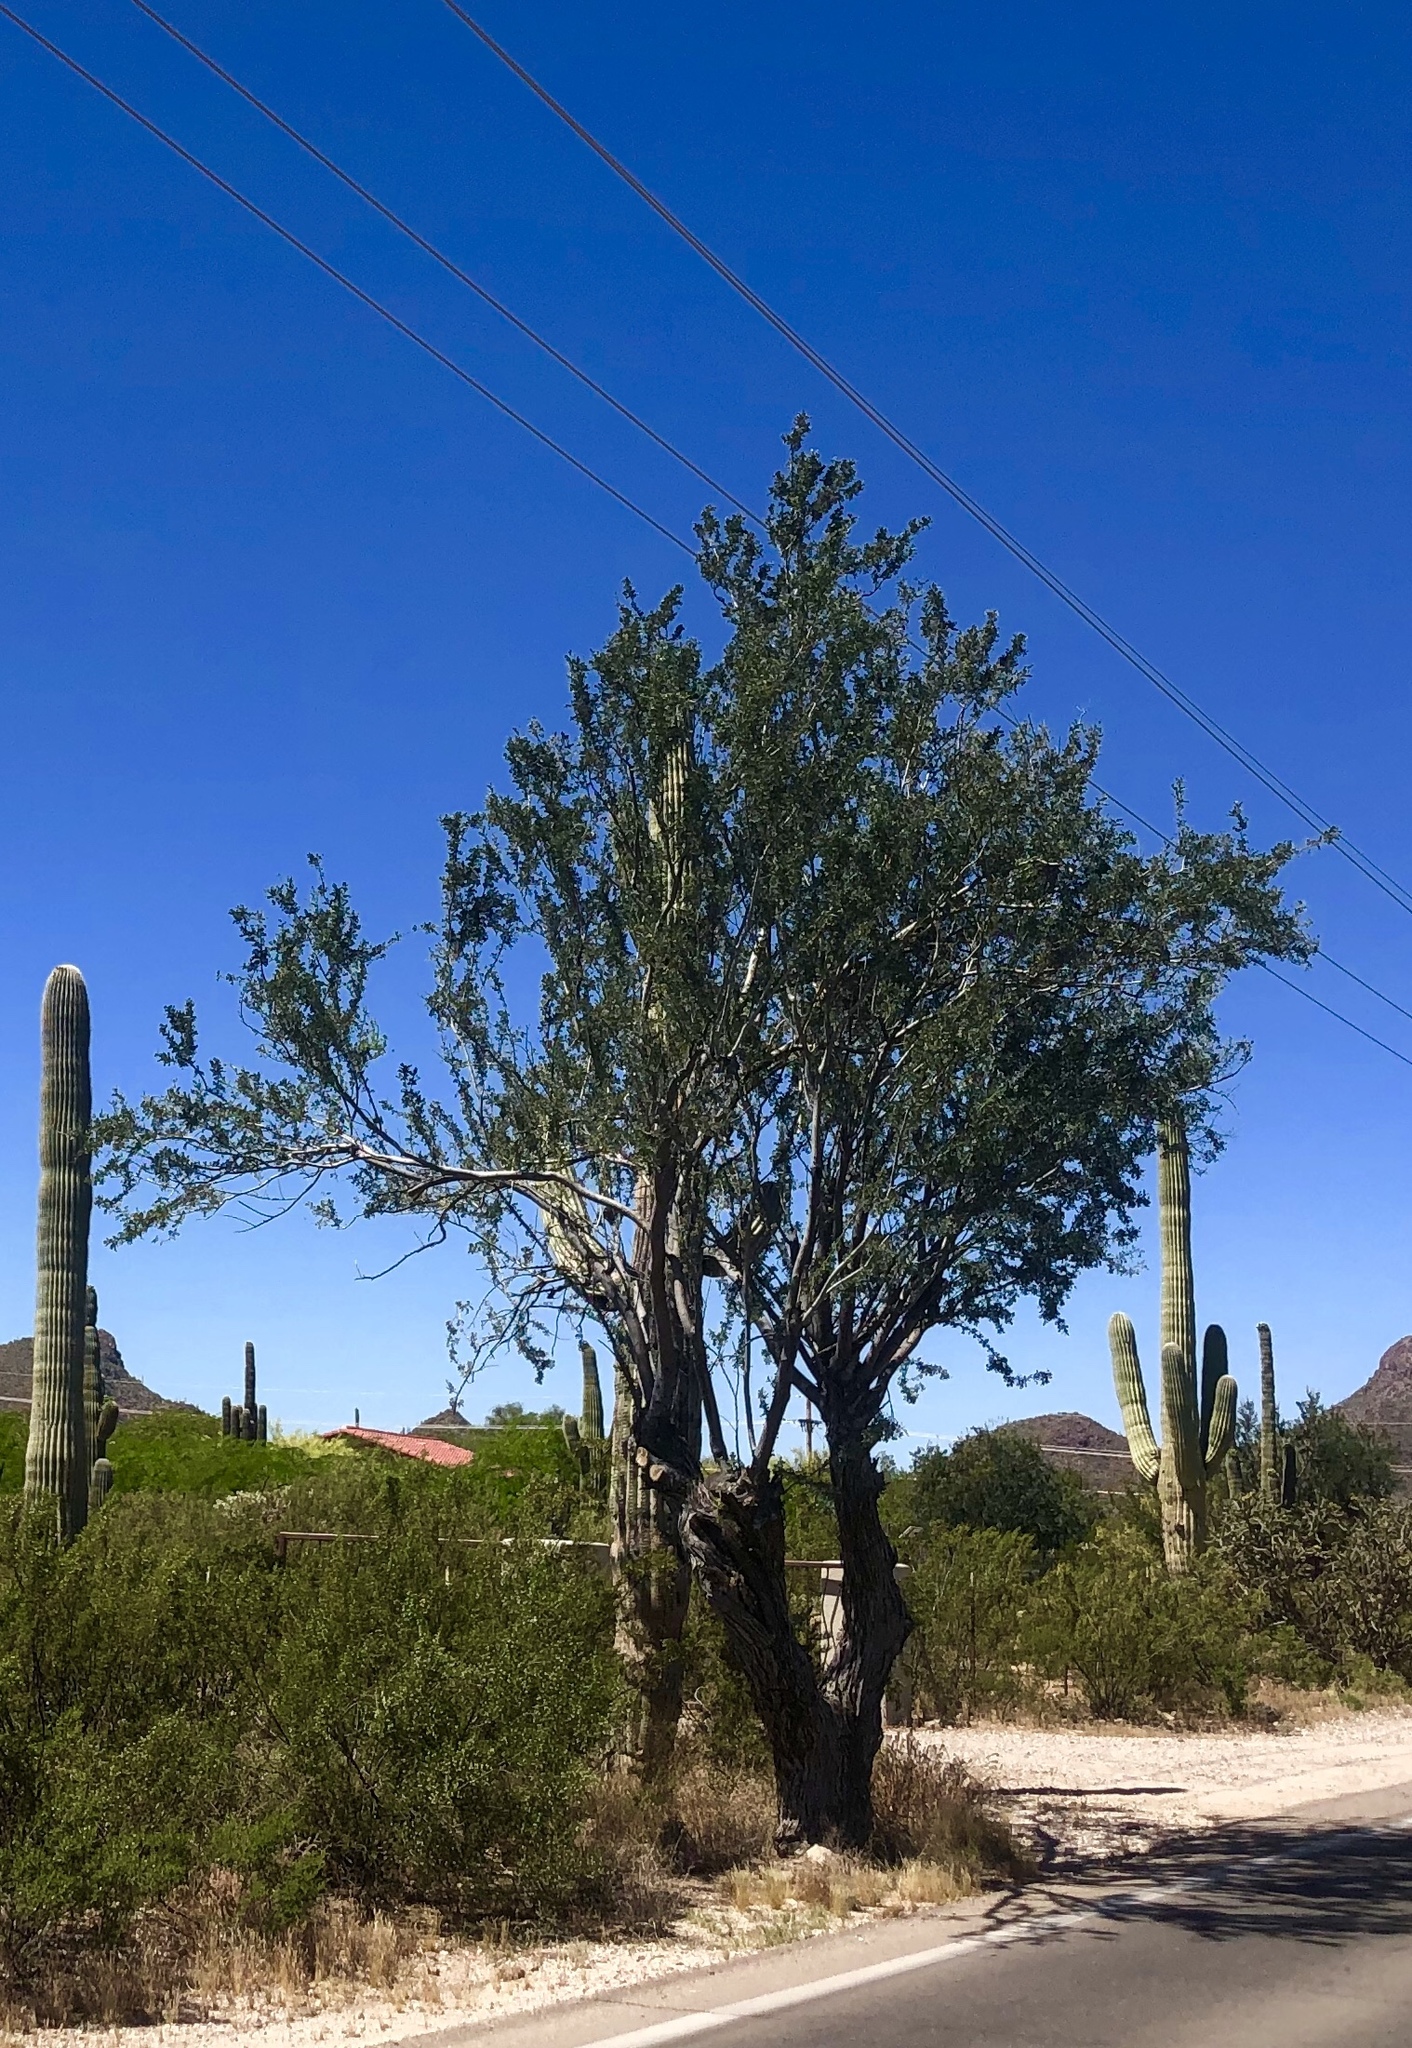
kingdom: Plantae
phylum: Tracheophyta
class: Magnoliopsida
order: Fabales
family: Fabaceae
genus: Olneya
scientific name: Olneya tesota
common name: Desert ironwood
